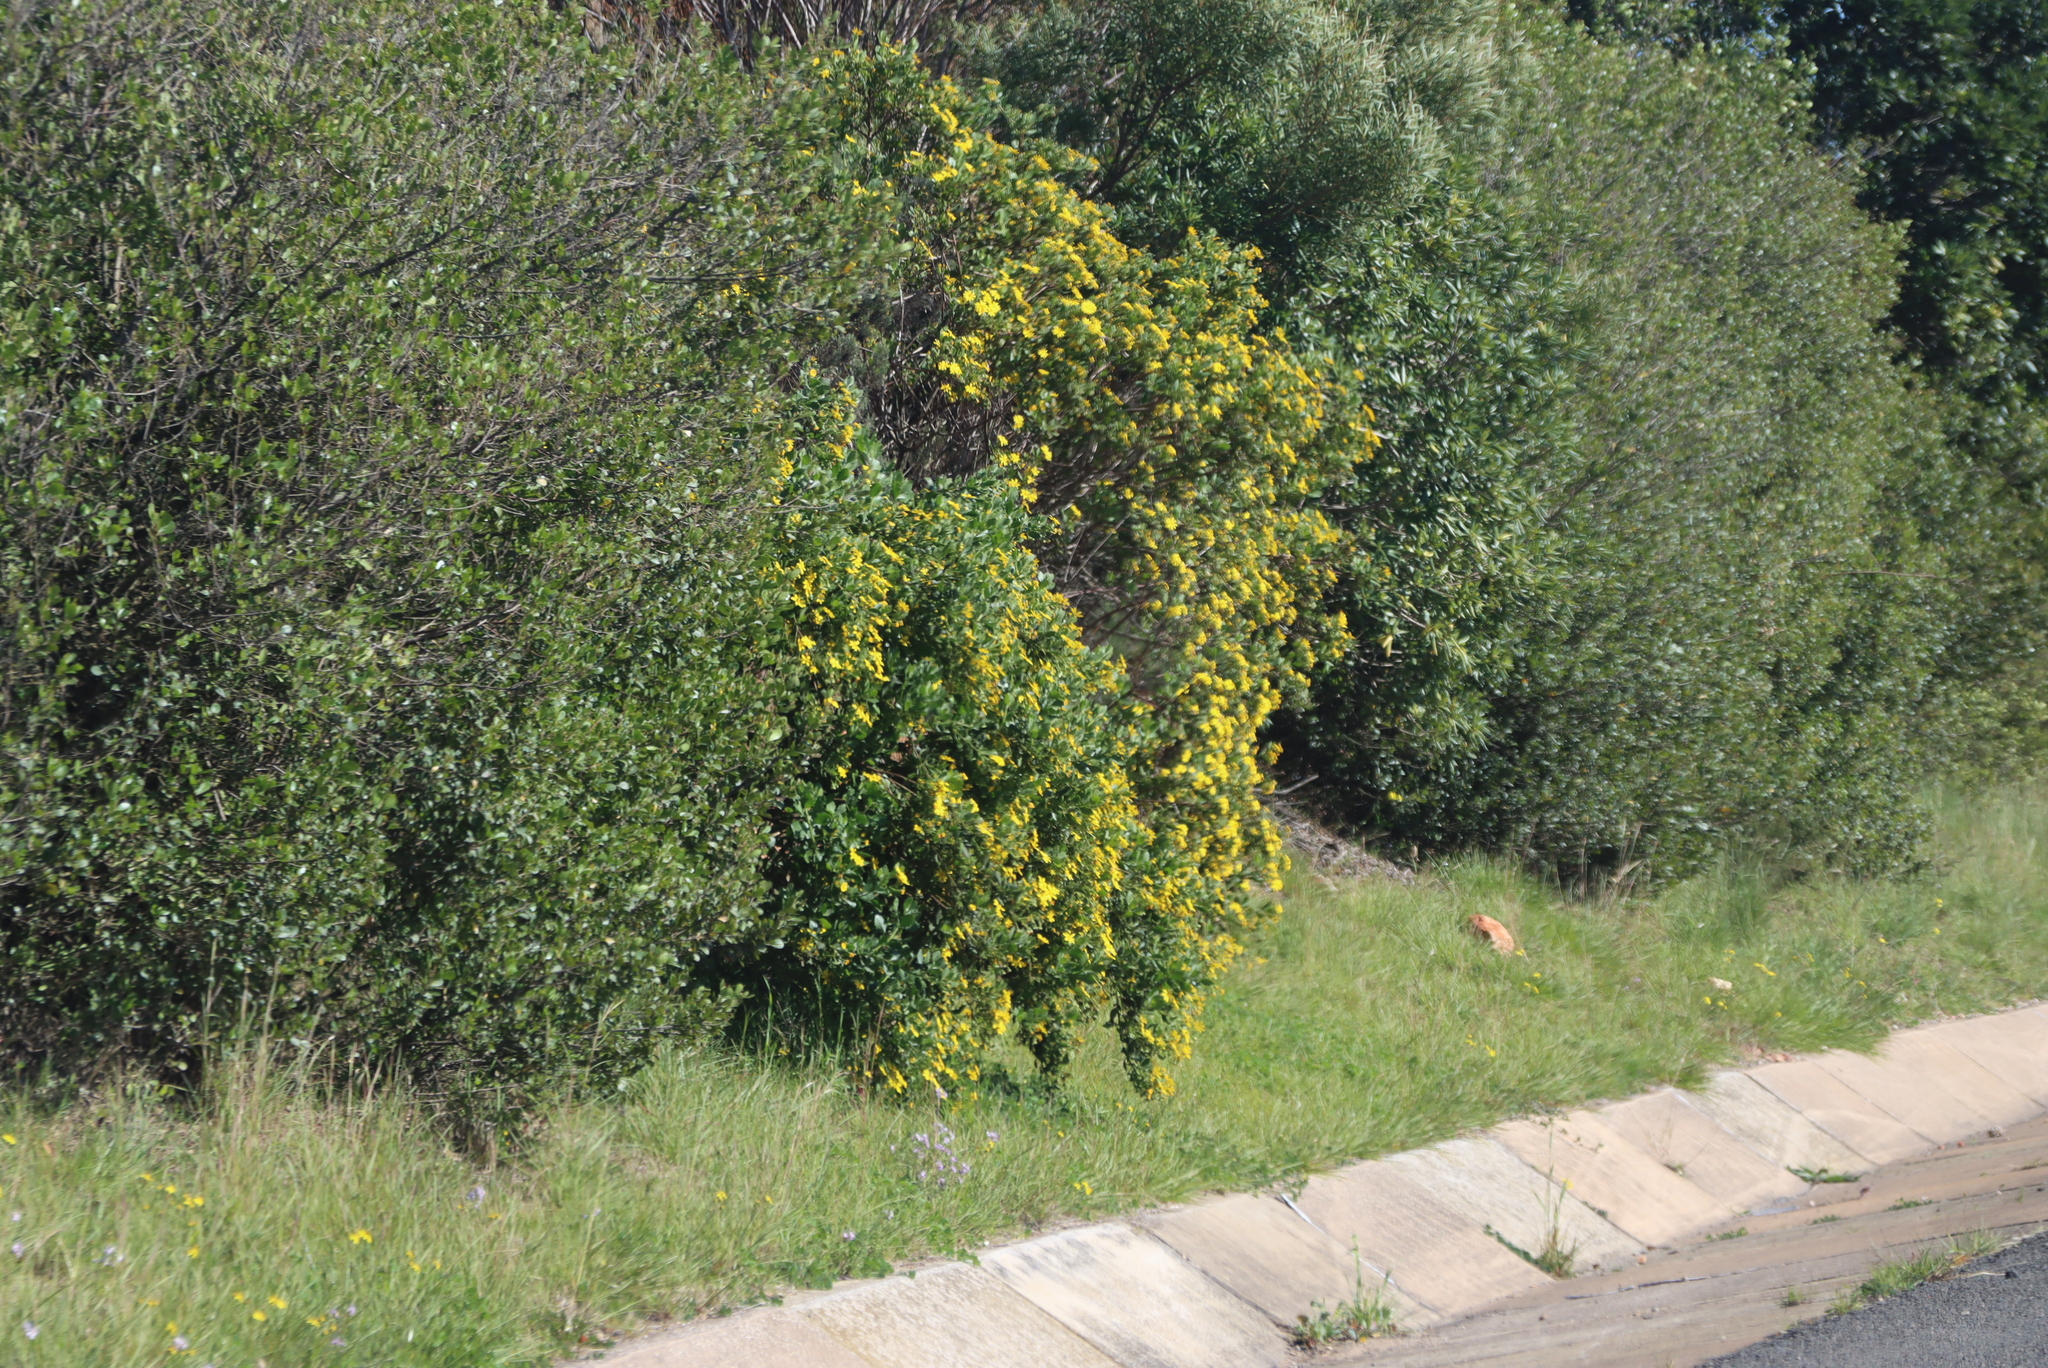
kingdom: Plantae
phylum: Tracheophyta
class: Magnoliopsida
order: Asterales
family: Asteraceae
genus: Osteospermum
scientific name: Osteospermum moniliferum
